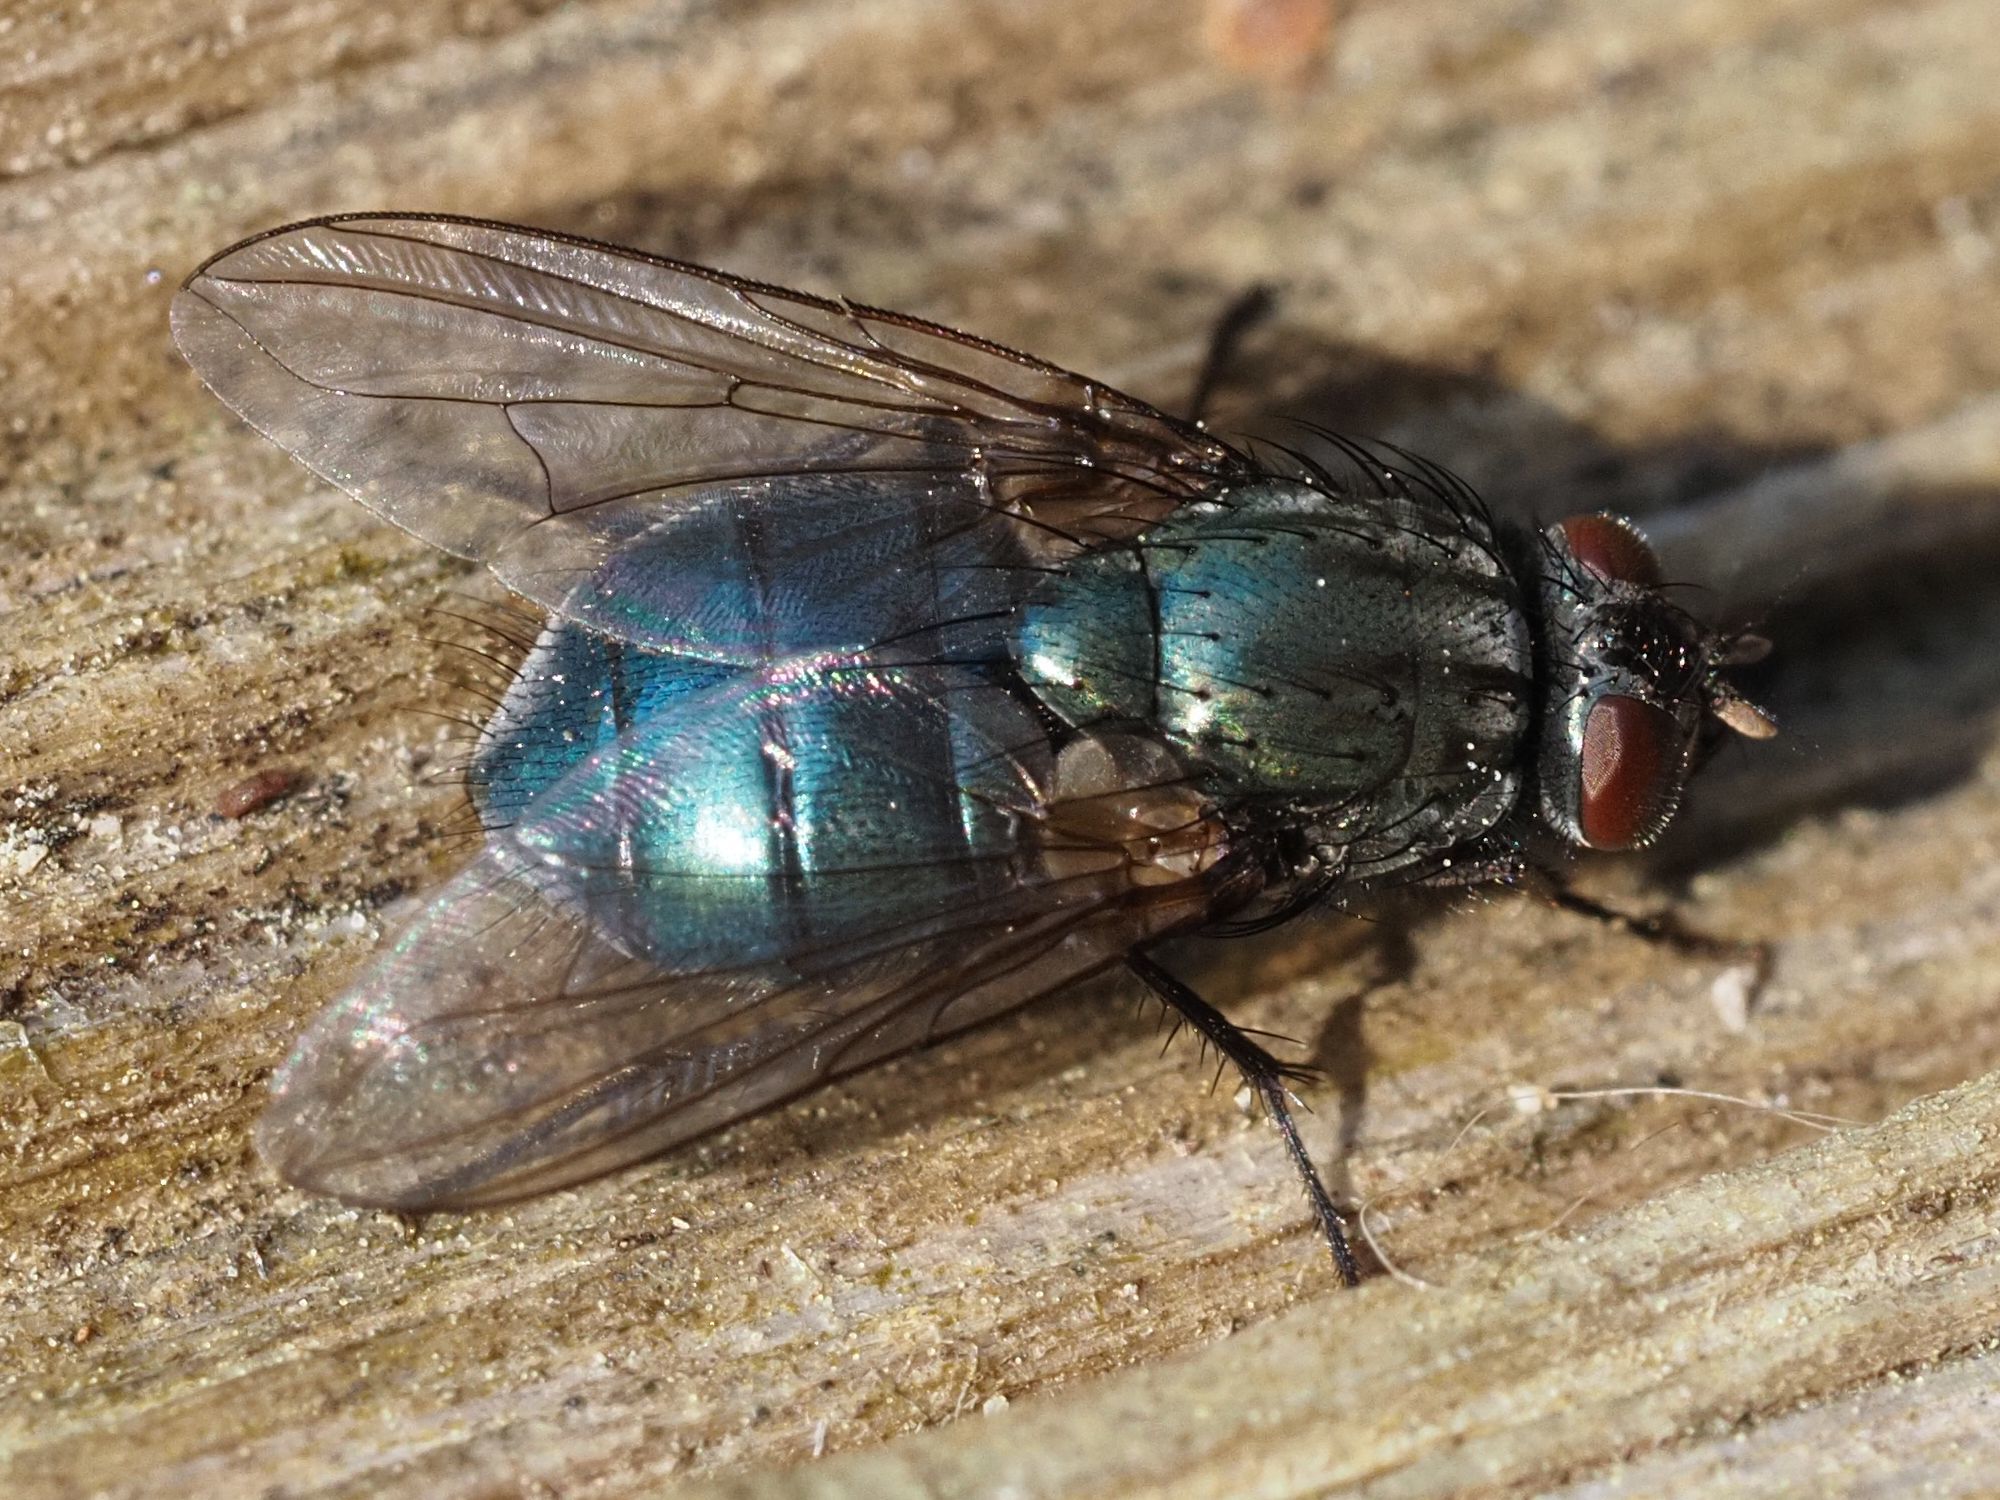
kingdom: Animalia
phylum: Arthropoda
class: Insecta
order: Diptera
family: Muscidae
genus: Dasyphora
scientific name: Dasyphora cyanella
